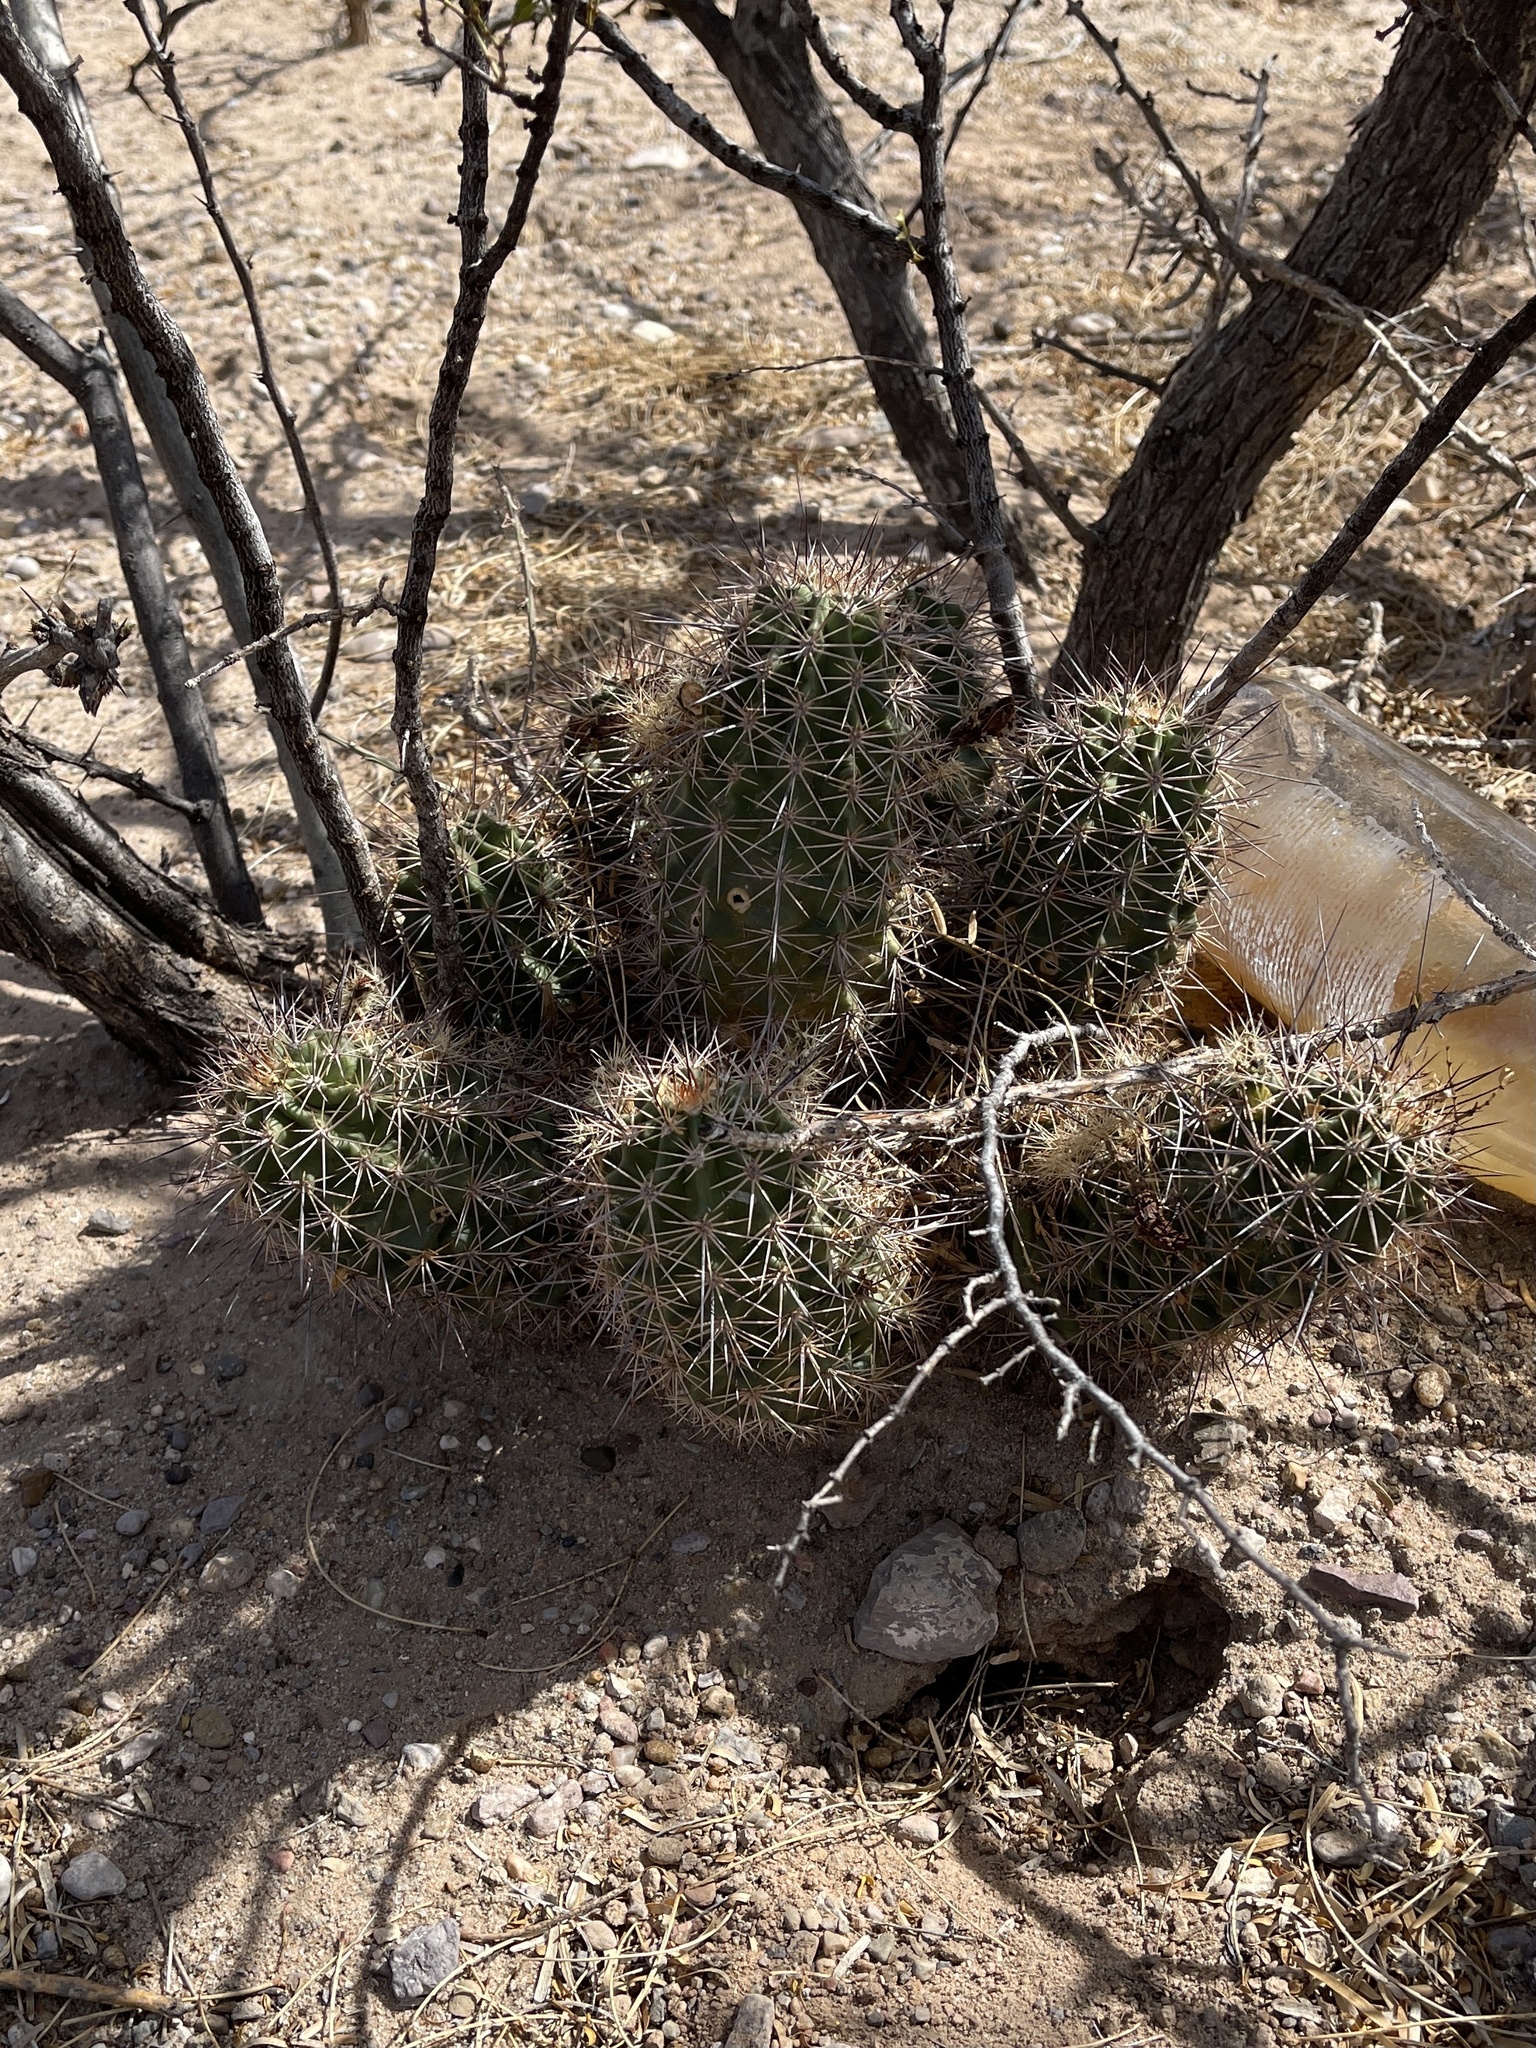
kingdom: Plantae
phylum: Tracheophyta
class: Magnoliopsida
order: Caryophyllales
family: Cactaceae
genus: Echinocereus
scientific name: Echinocereus coccineus
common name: Scarlet hedgehog cactus
